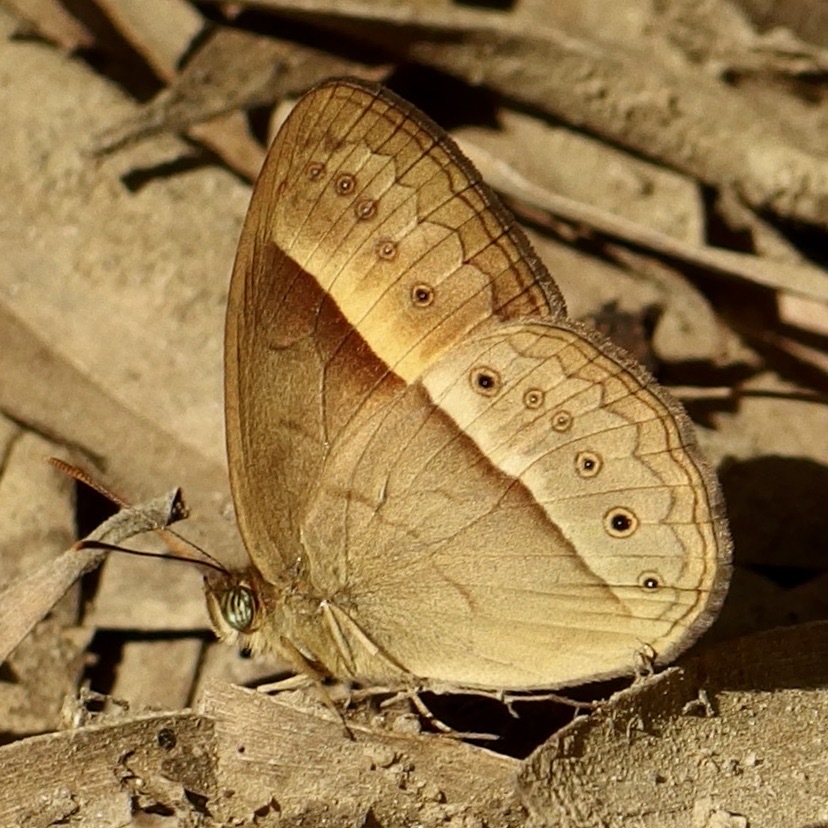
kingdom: Animalia
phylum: Arthropoda
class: Insecta
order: Lepidoptera
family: Nymphalidae
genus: Mycalesis
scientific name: Mycalesis terminus
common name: Orange bushbrown
